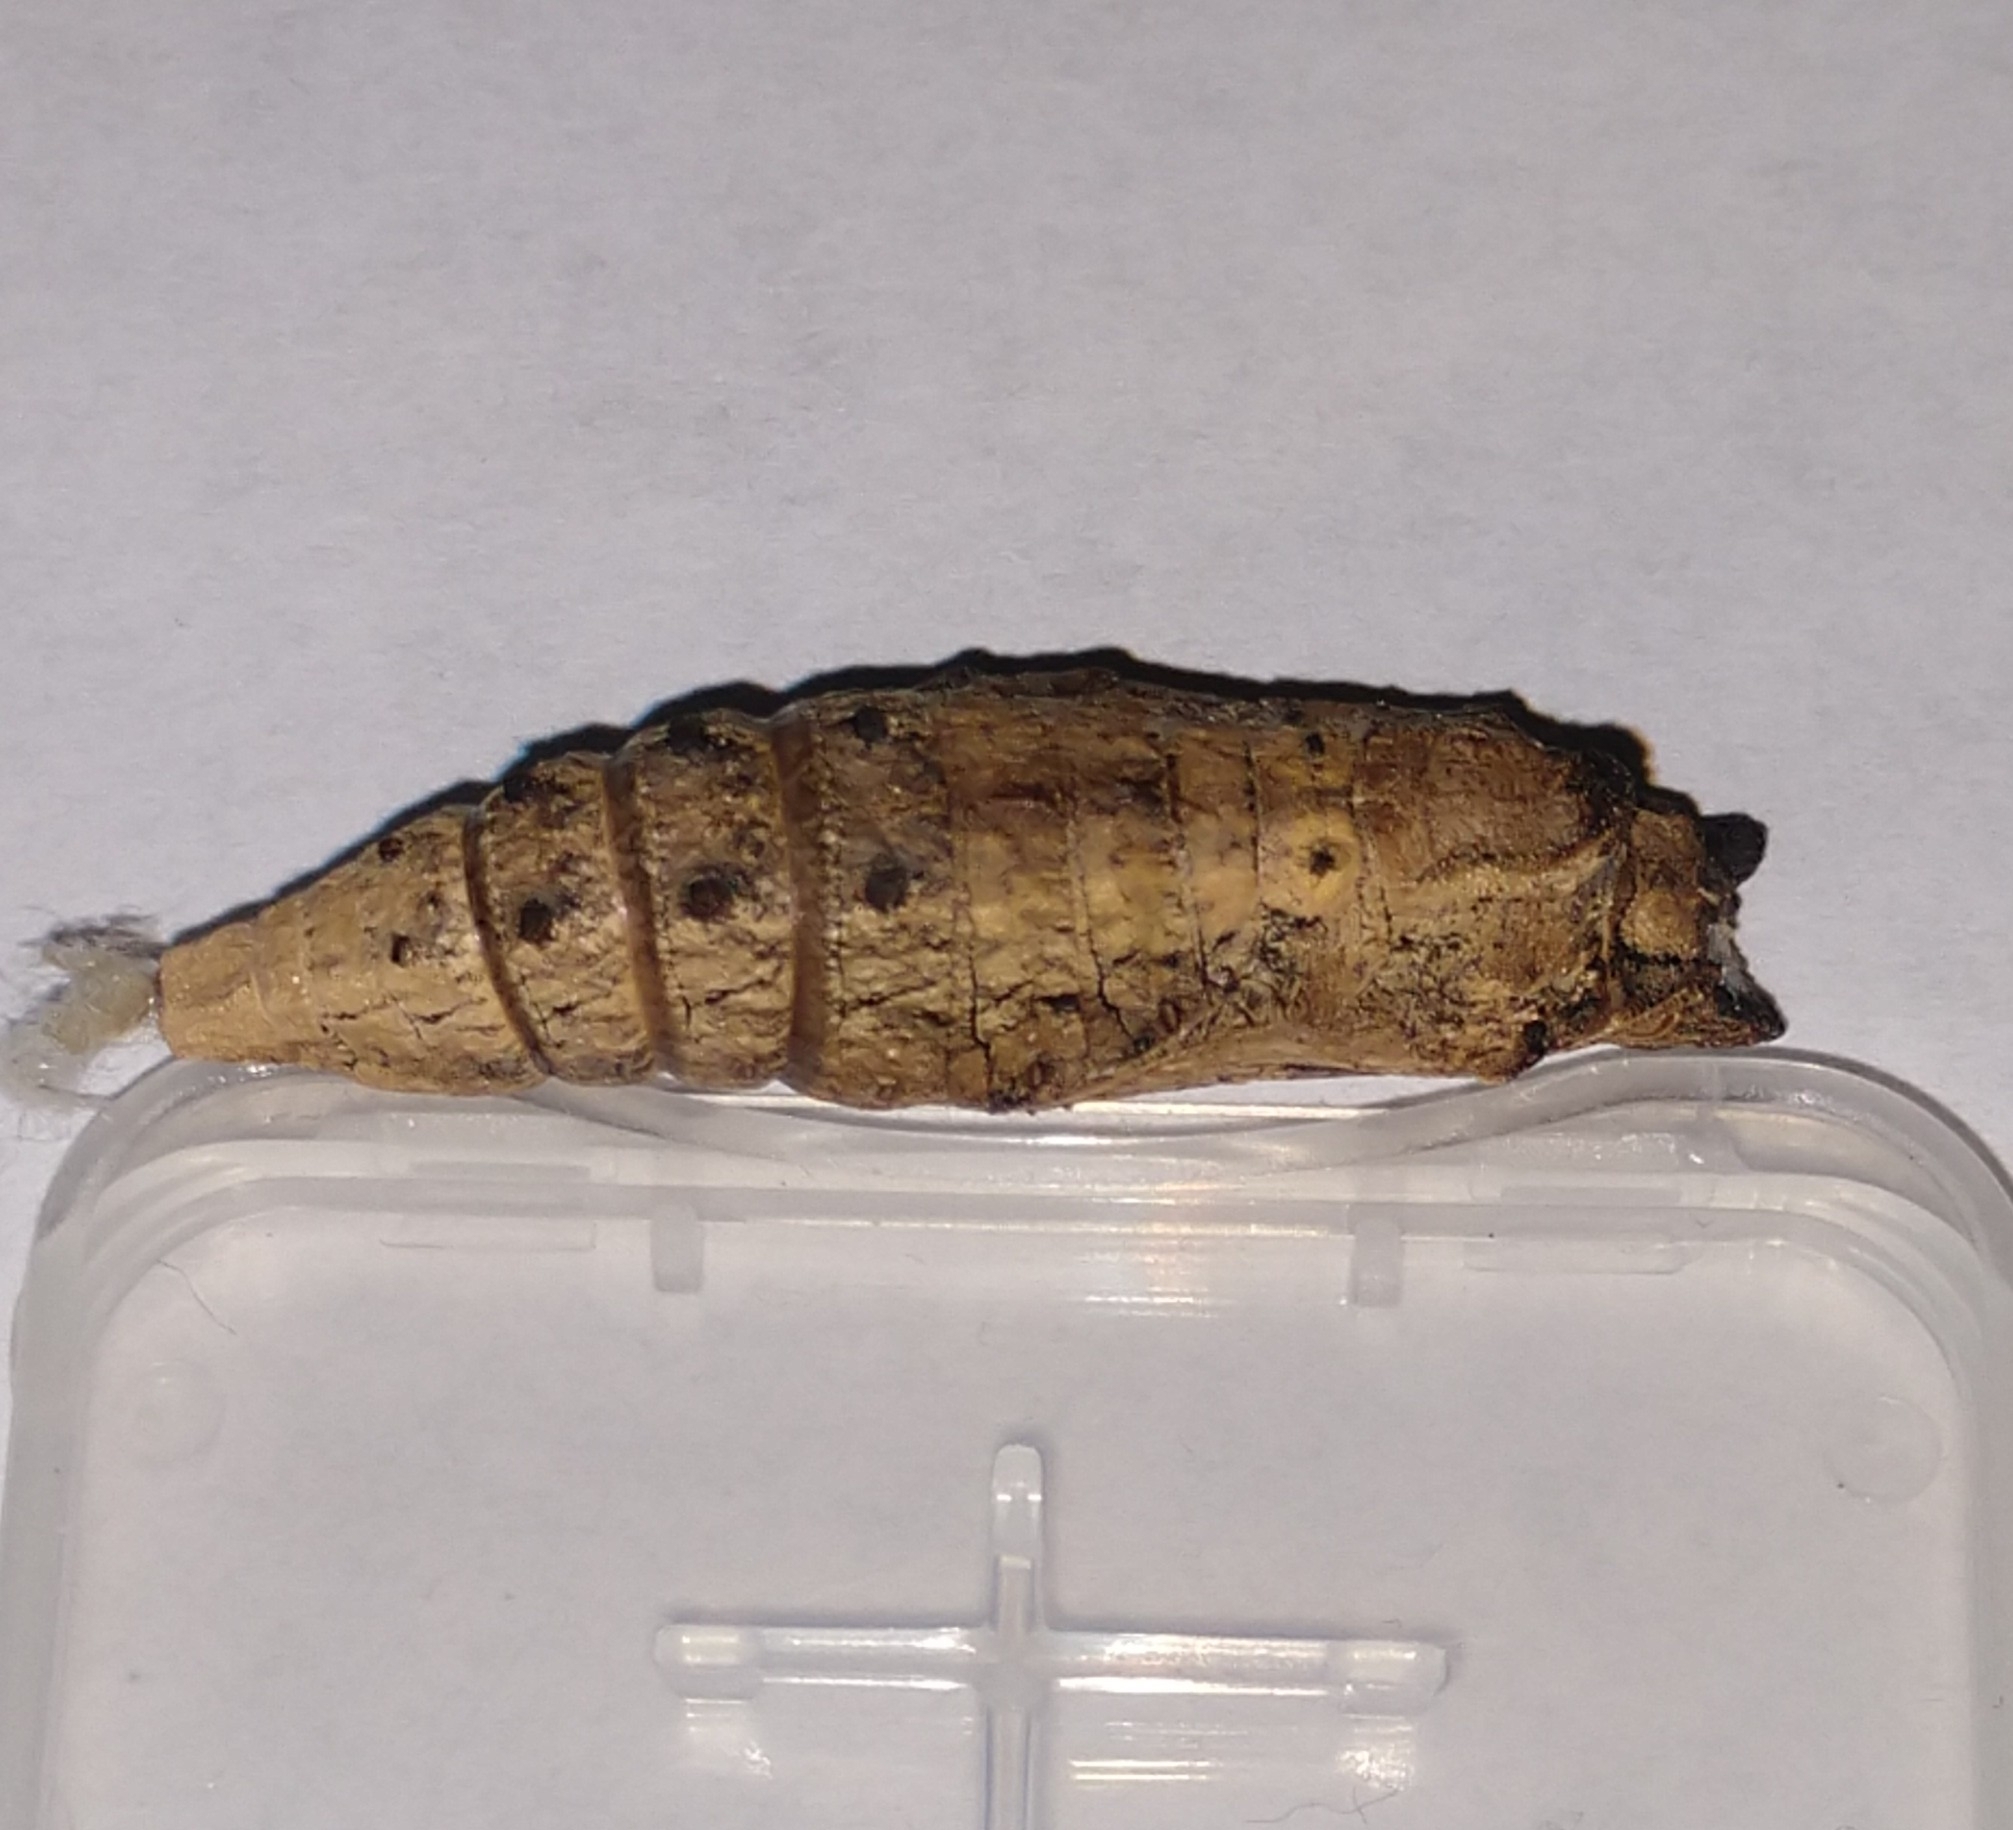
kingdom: Animalia
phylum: Arthropoda
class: Insecta
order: Lepidoptera
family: Papilionidae
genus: Papilio
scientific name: Papilio polyxenes
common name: Black swallowtail
